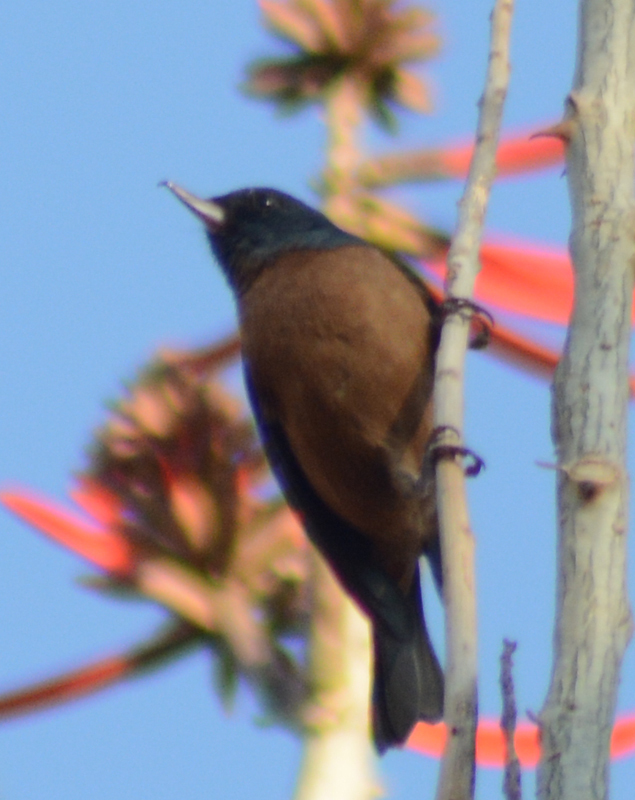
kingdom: Animalia
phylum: Chordata
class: Aves
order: Passeriformes
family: Thraupidae
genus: Diglossa
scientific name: Diglossa baritula
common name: Cinnamon-bellied flowerpiercer
